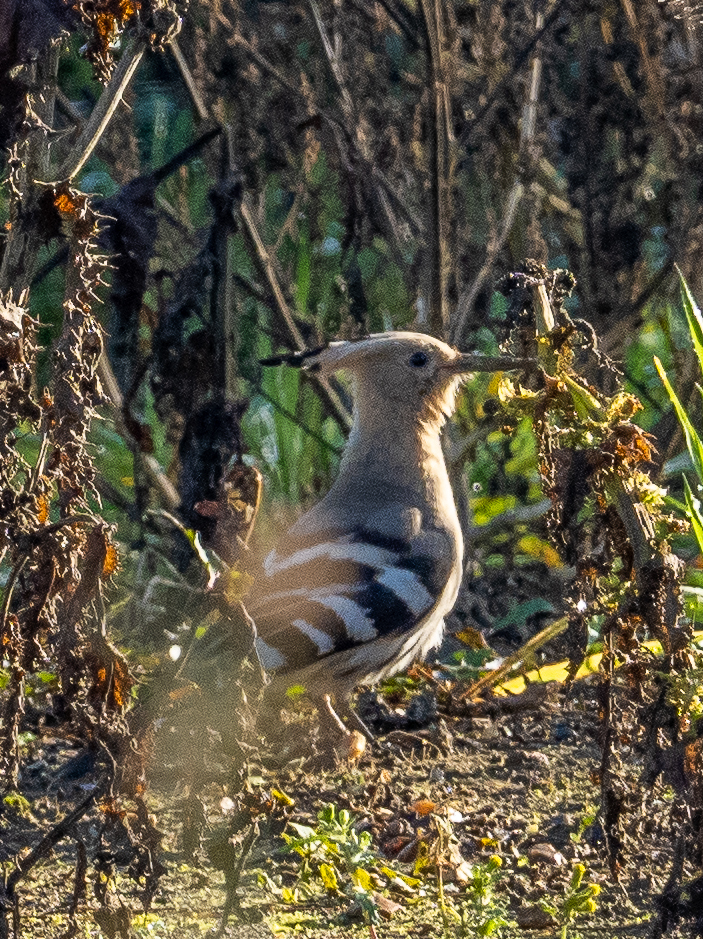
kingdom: Animalia
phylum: Chordata
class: Aves
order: Bucerotiformes
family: Upupidae
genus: Upupa
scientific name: Upupa epops
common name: Eurasian hoopoe
